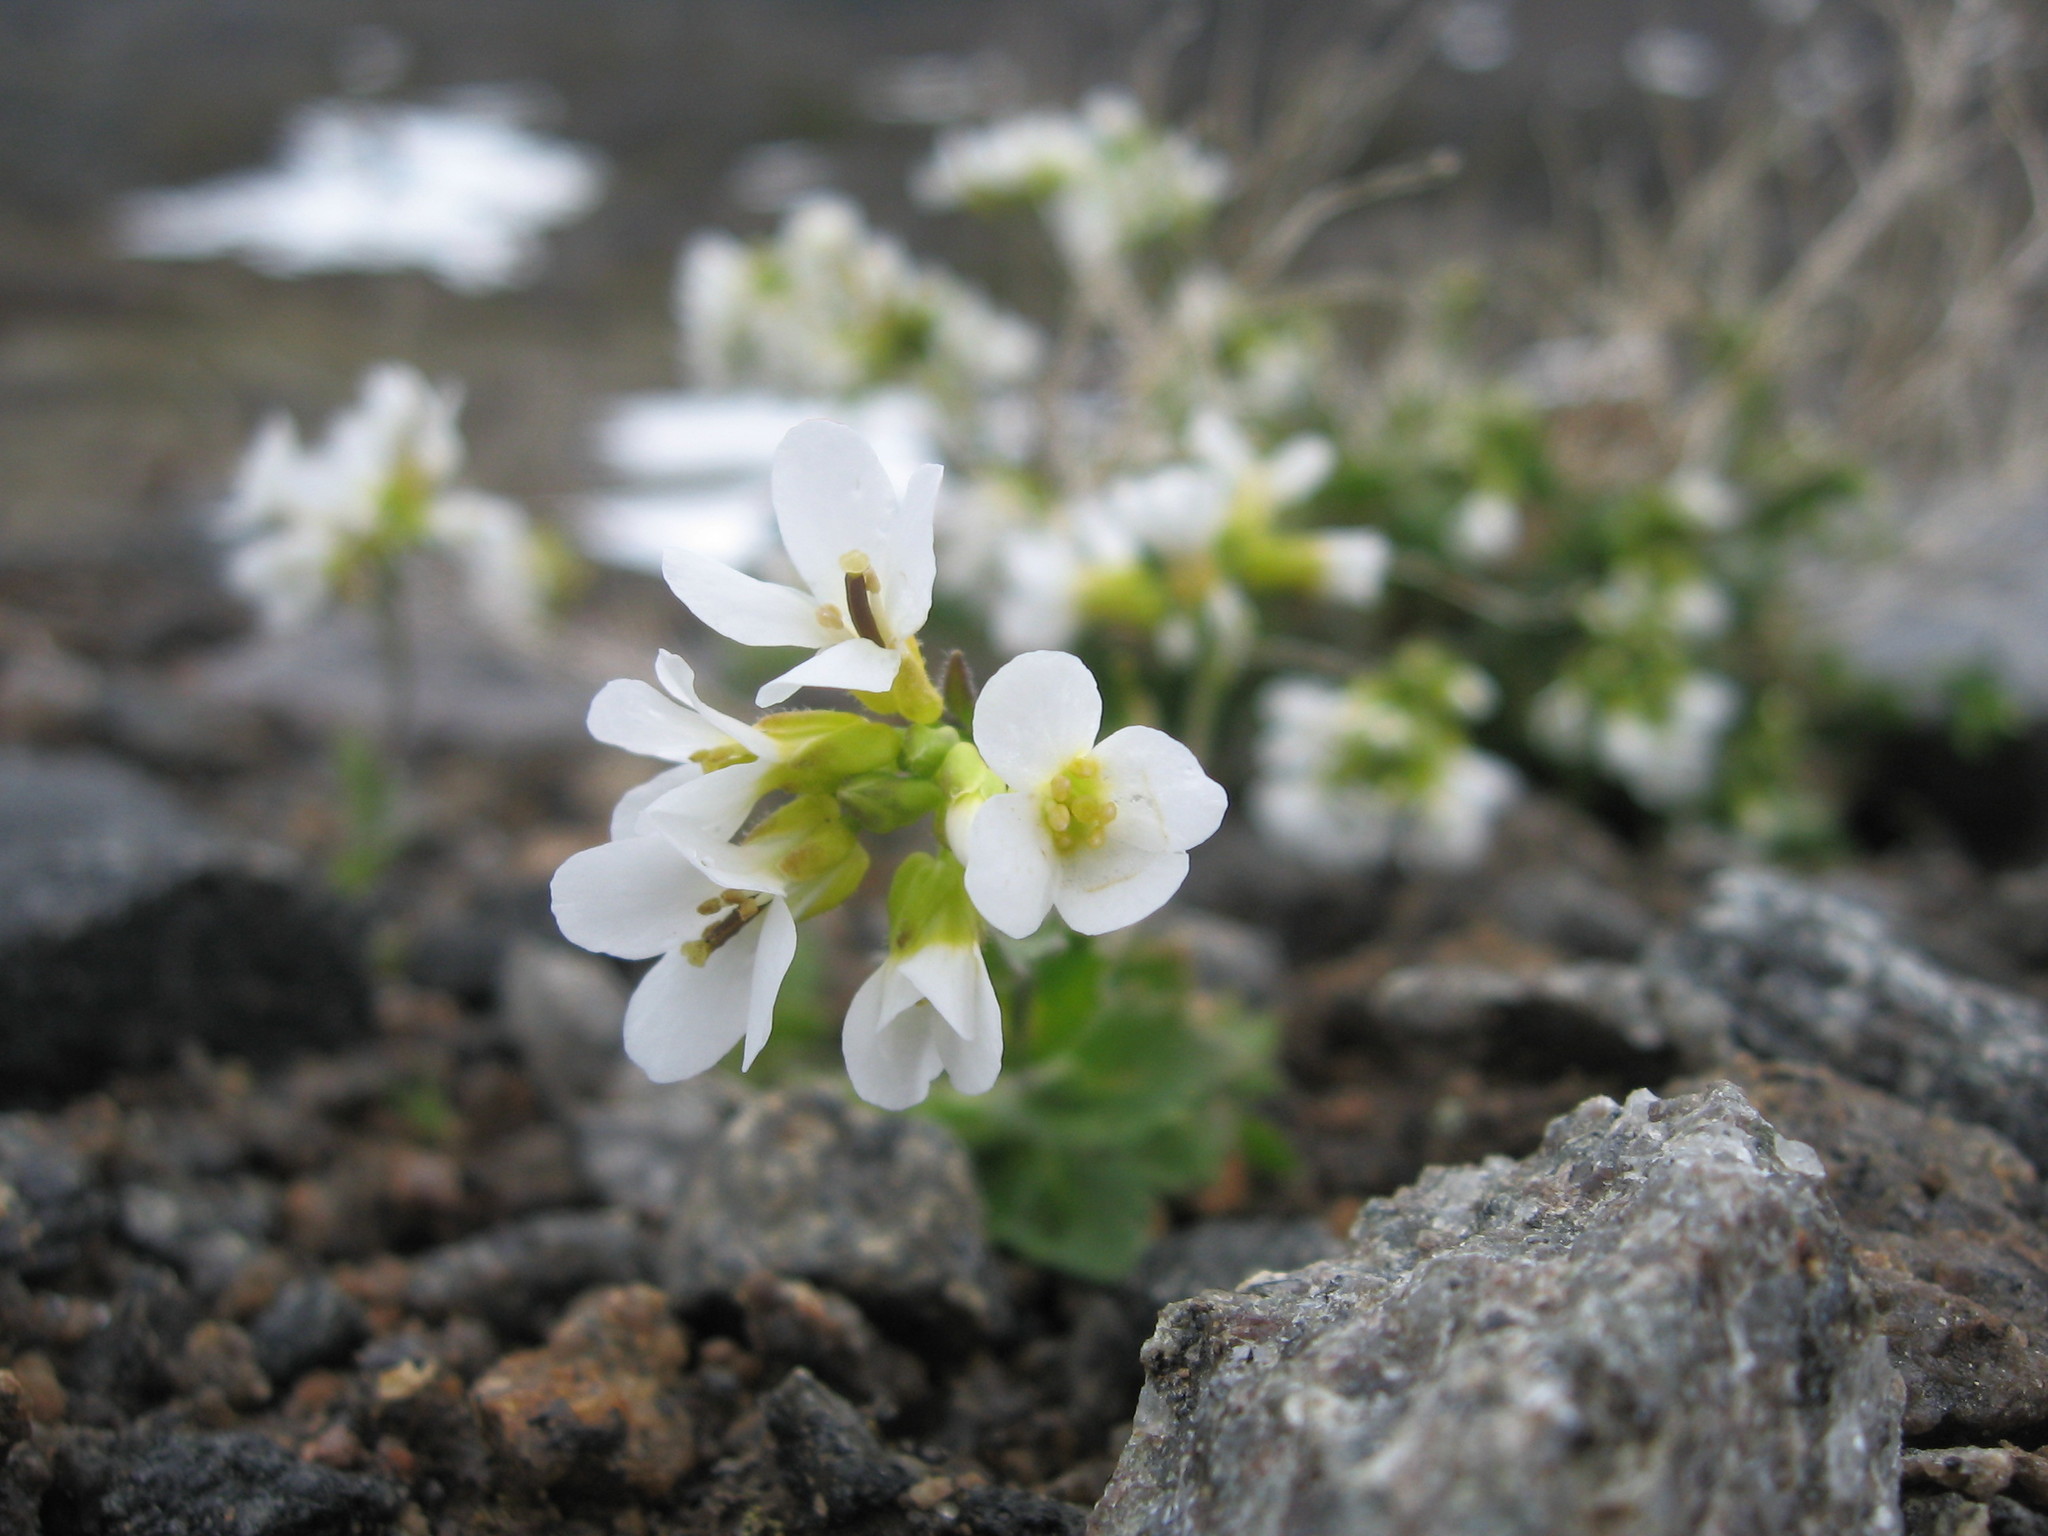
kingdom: Plantae
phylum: Tracheophyta
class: Magnoliopsida
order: Brassicales
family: Brassicaceae
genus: Arabis
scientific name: Arabis alpina
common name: Alpine rock-cress
